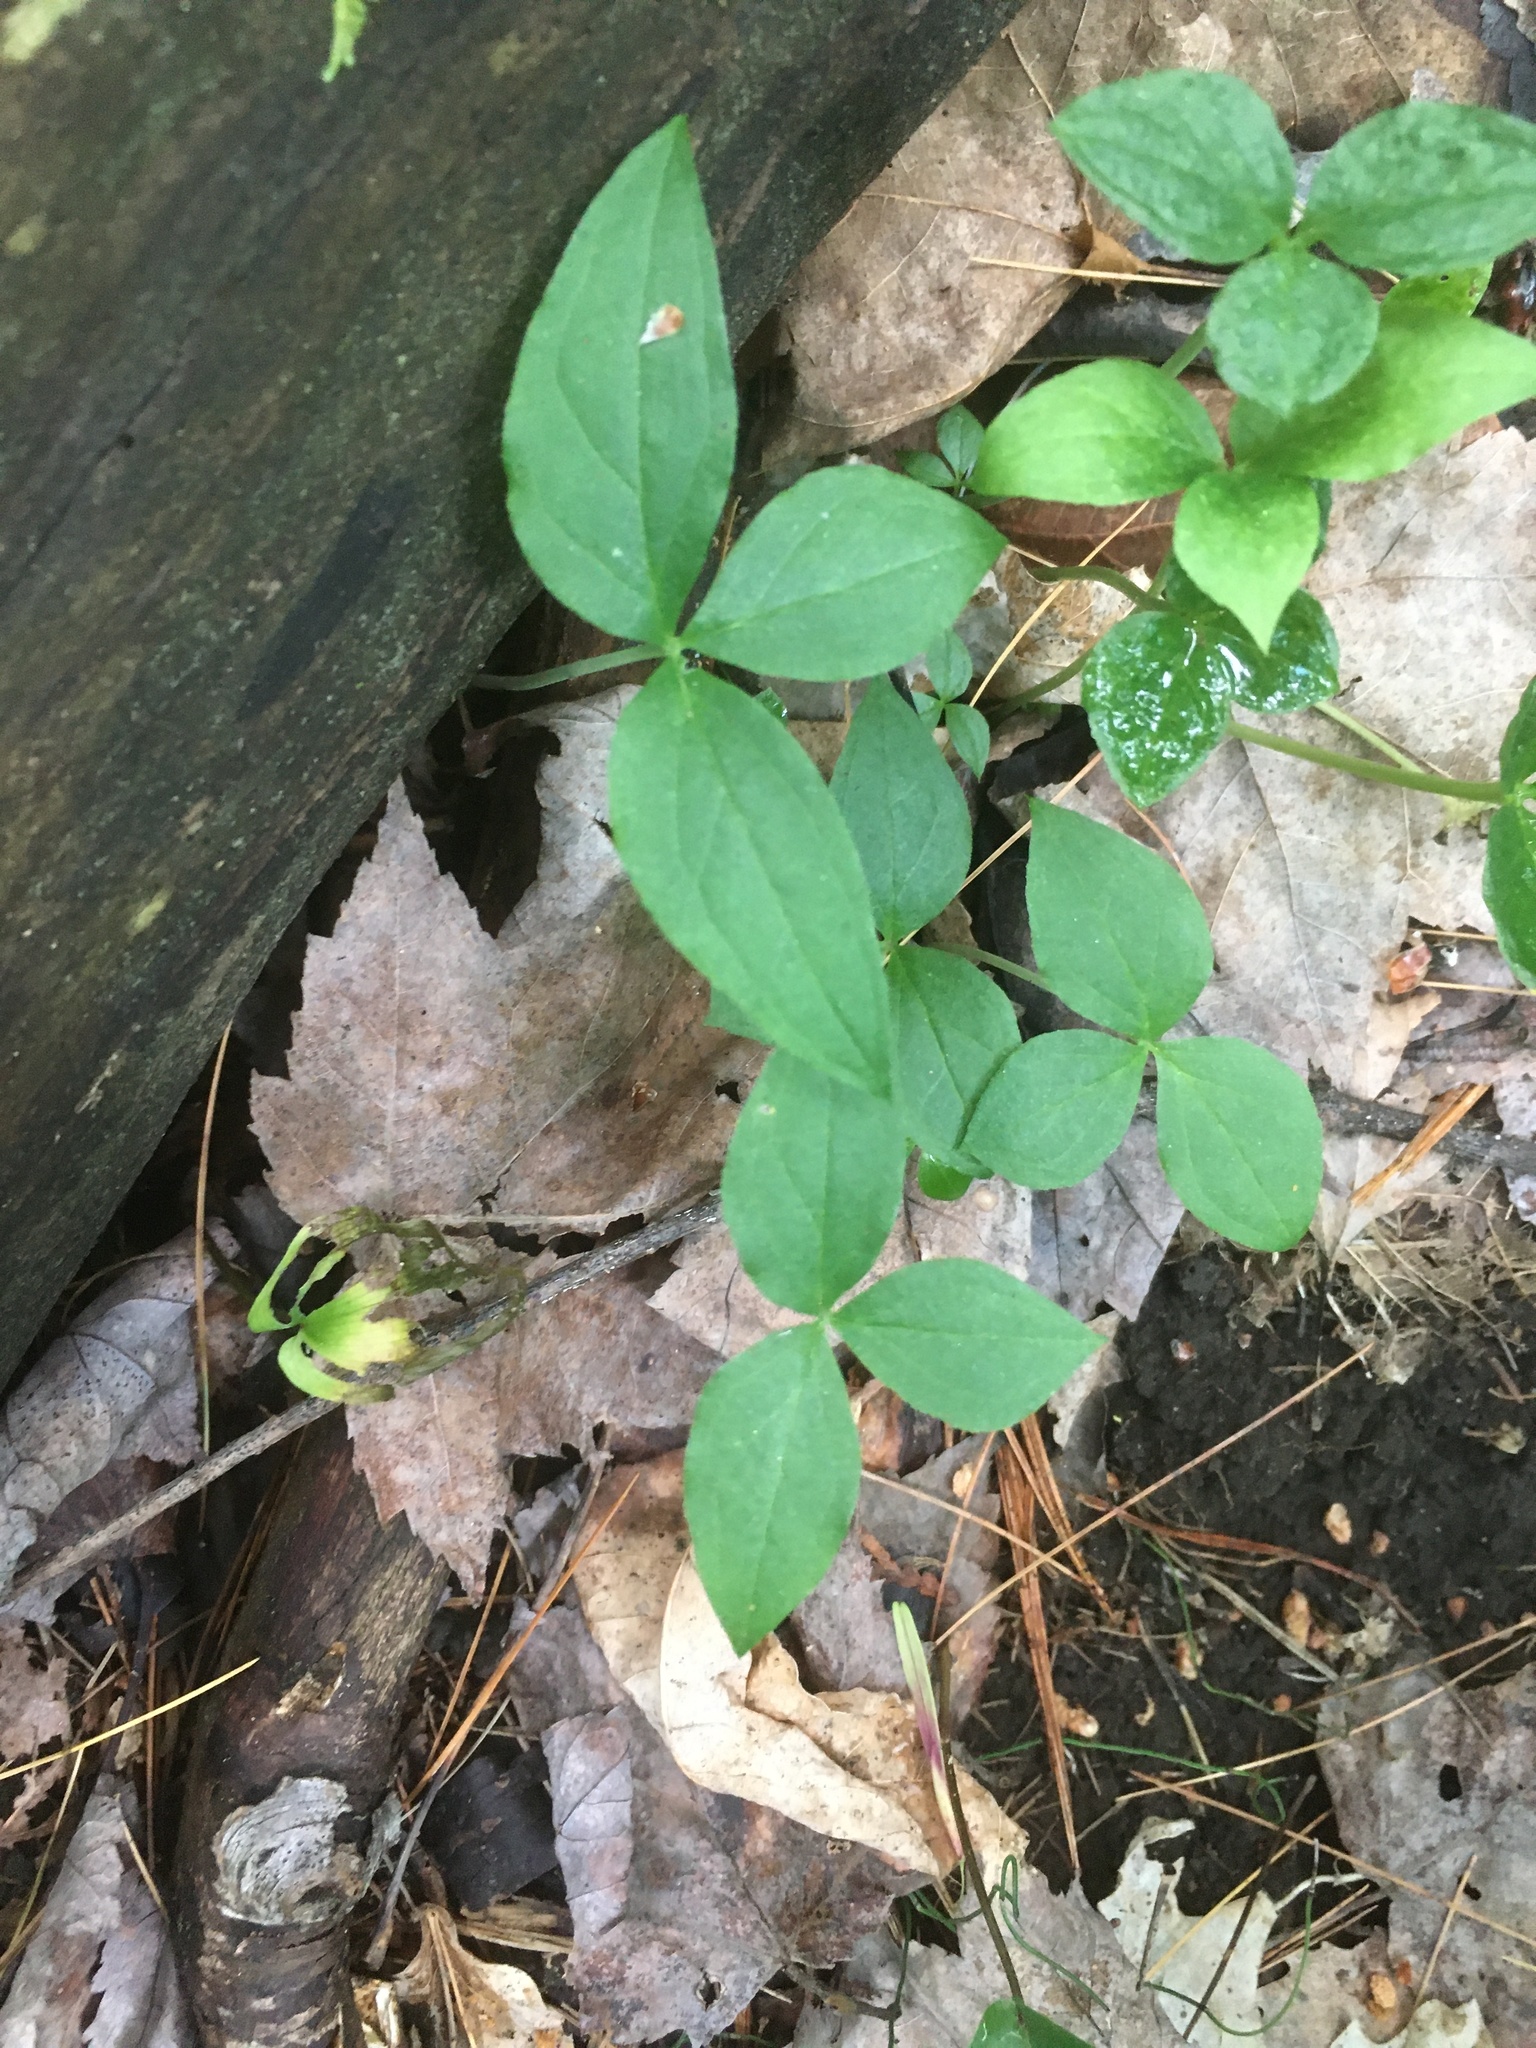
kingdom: Plantae
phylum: Tracheophyta
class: Liliopsida
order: Alismatales
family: Araceae
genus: Arisaema
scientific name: Arisaema triphyllum
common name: Jack-in-the-pulpit
